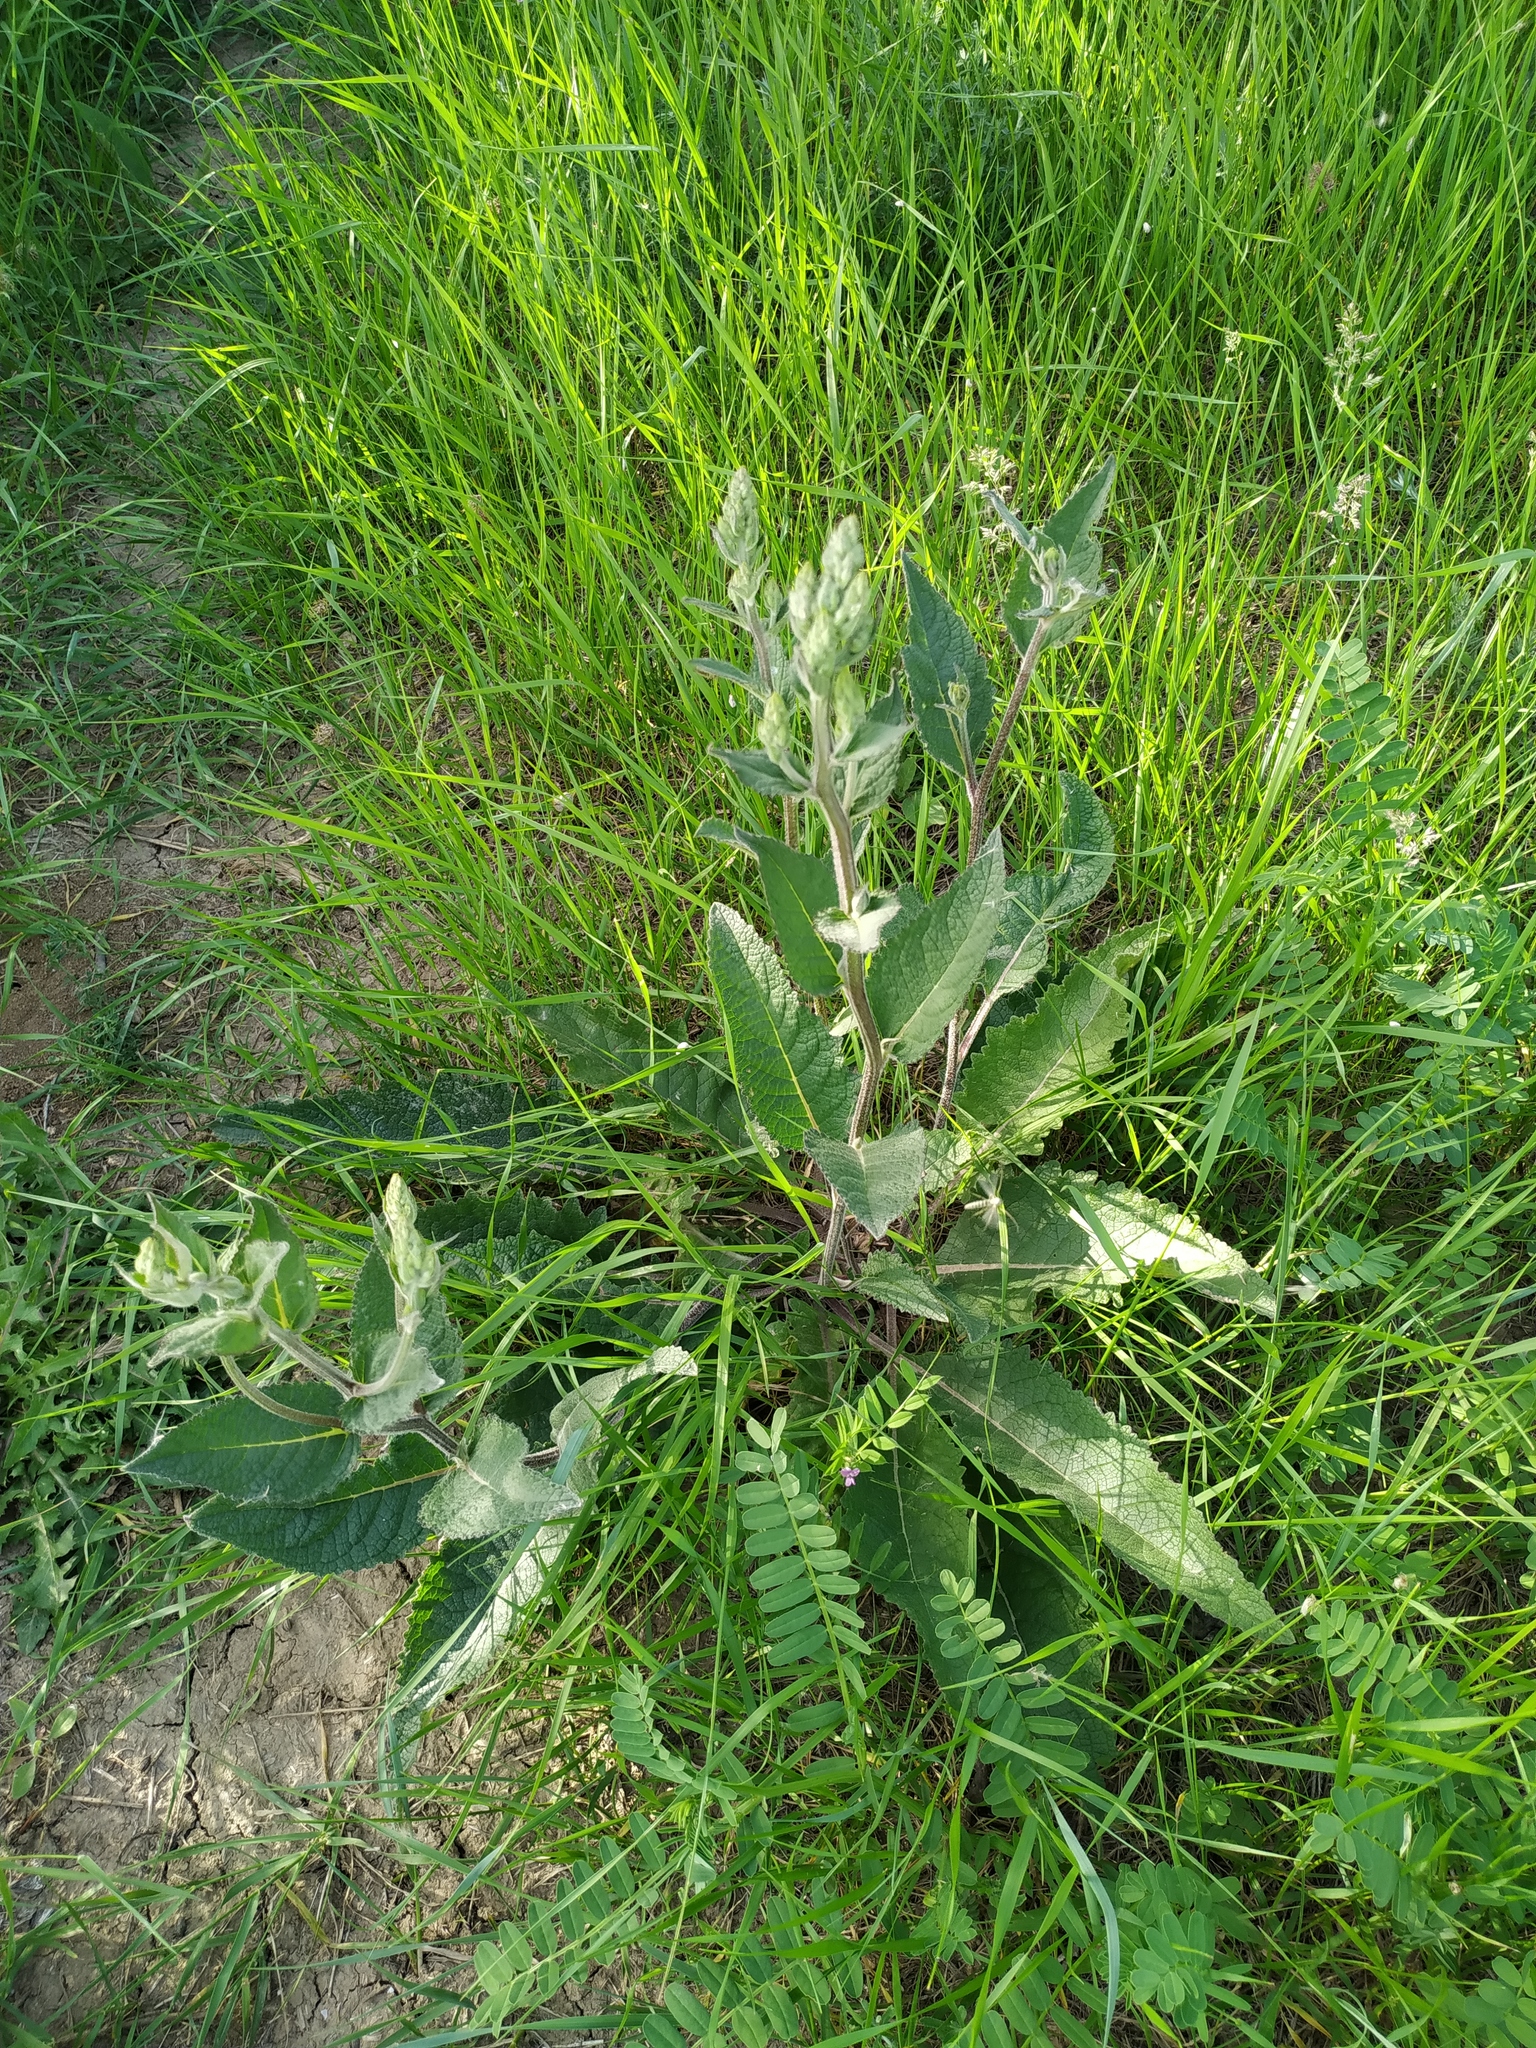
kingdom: Plantae
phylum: Tracheophyta
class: Magnoliopsida
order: Lamiales
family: Scrophulariaceae
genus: Verbascum
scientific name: Verbascum chaixii
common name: Nettle-leaved mullein
